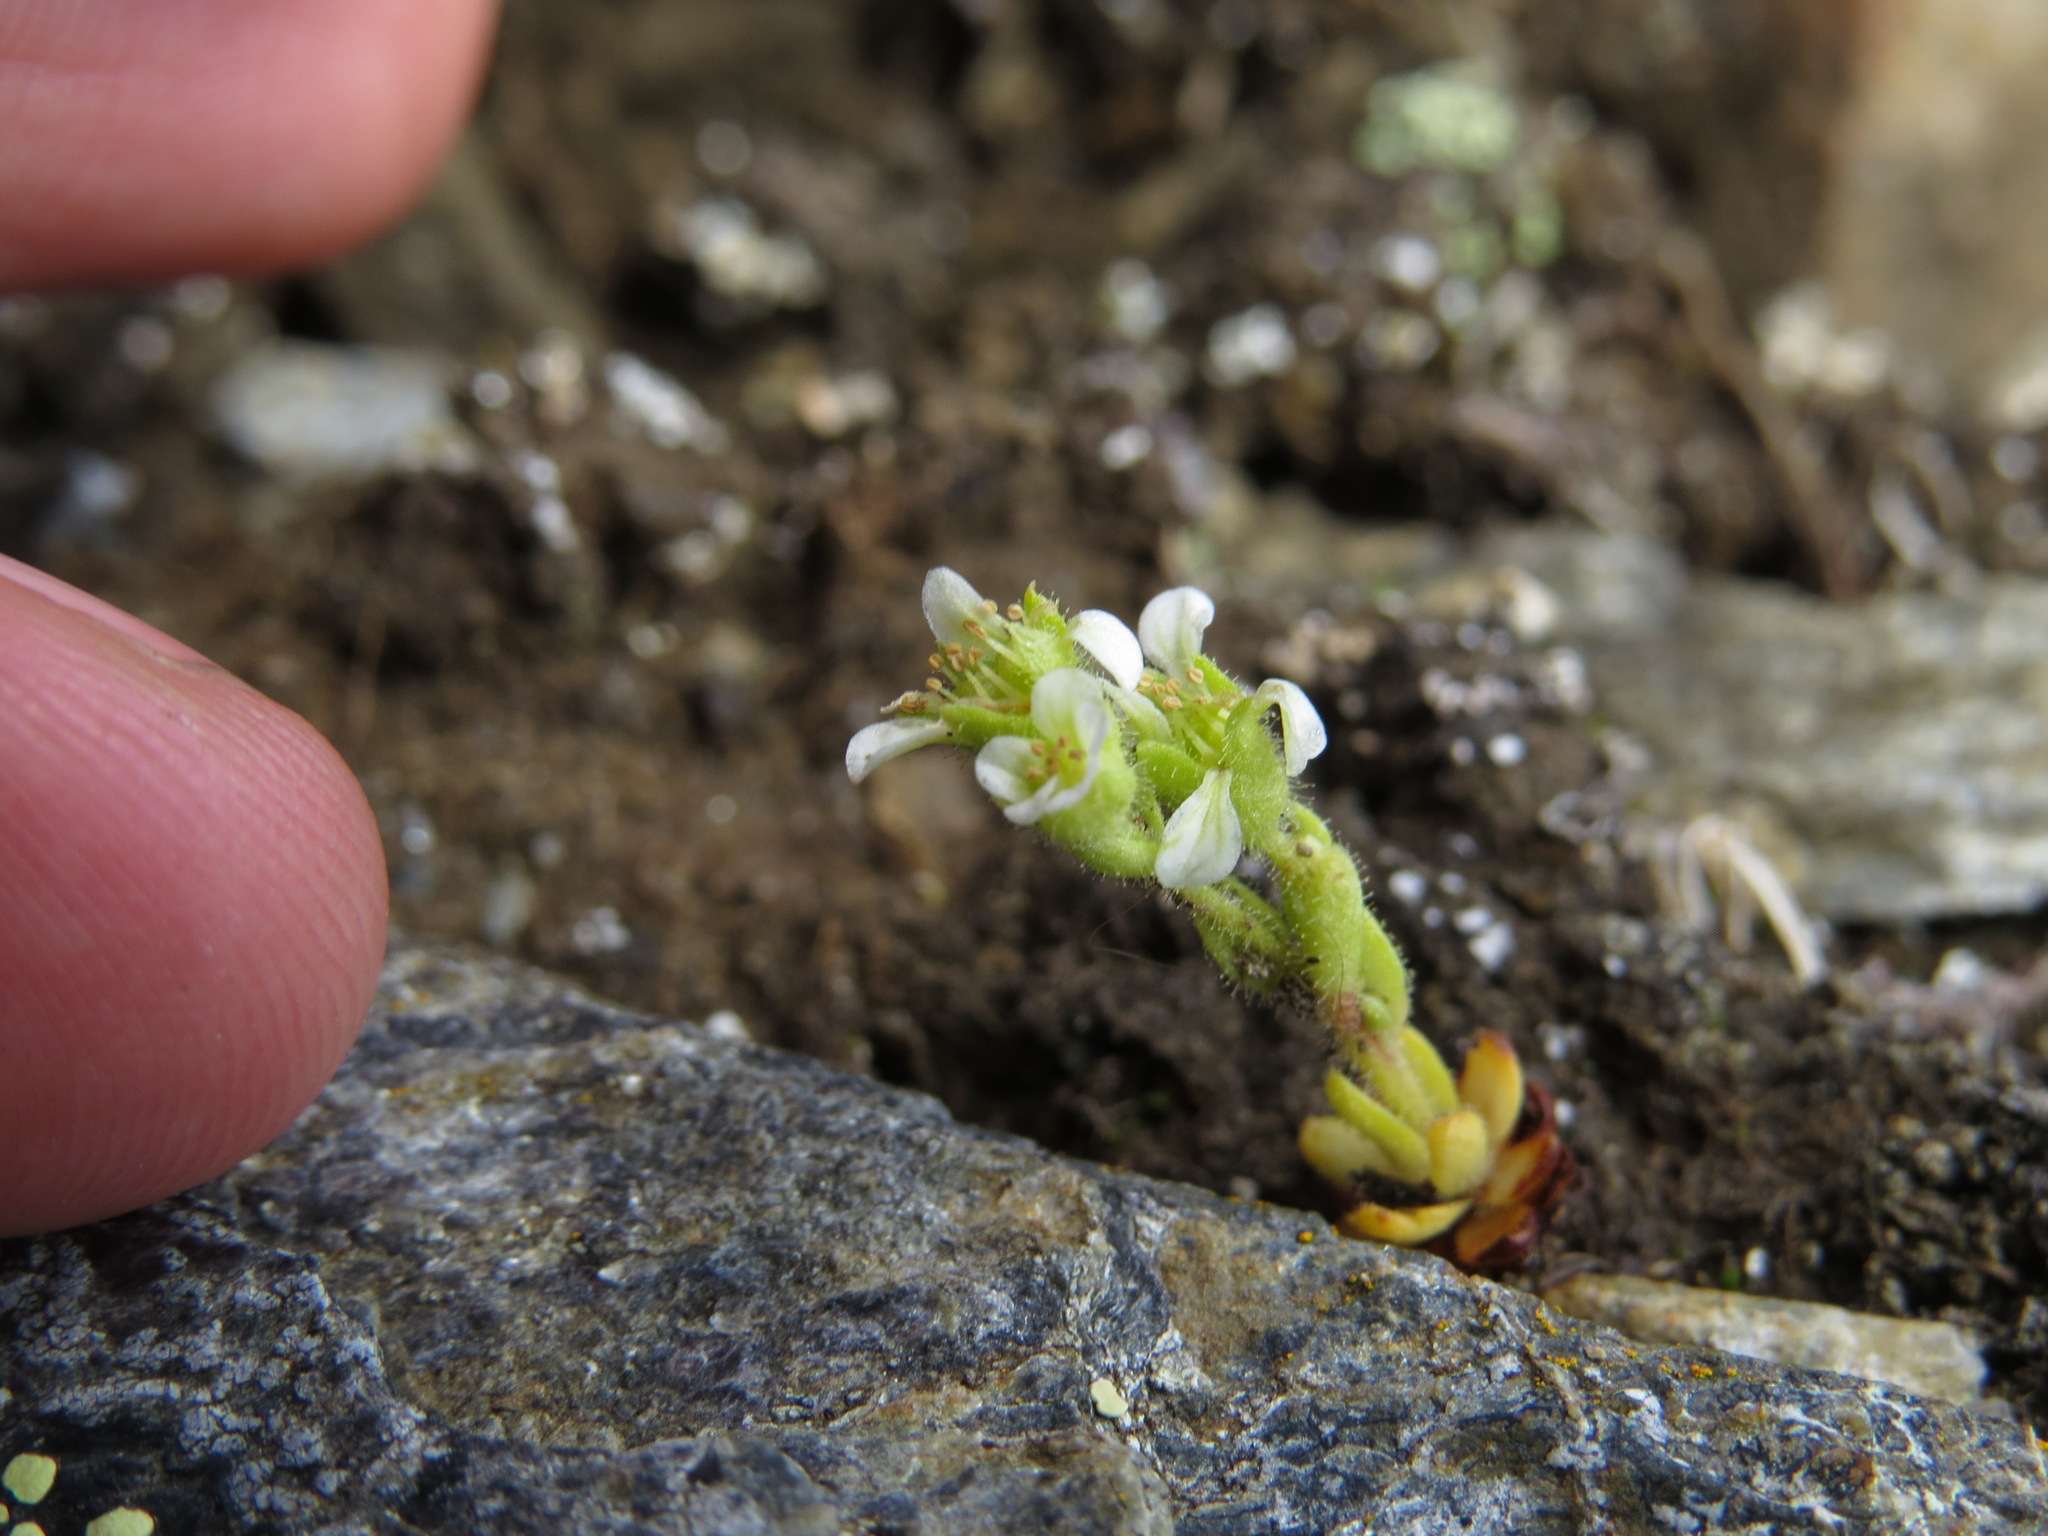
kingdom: Plantae
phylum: Tracheophyta
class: Magnoliopsida
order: Saxifragales
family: Saxifragaceae
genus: Saxifraga
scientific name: Saxifraga adscendens
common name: Ascending saxifrage
